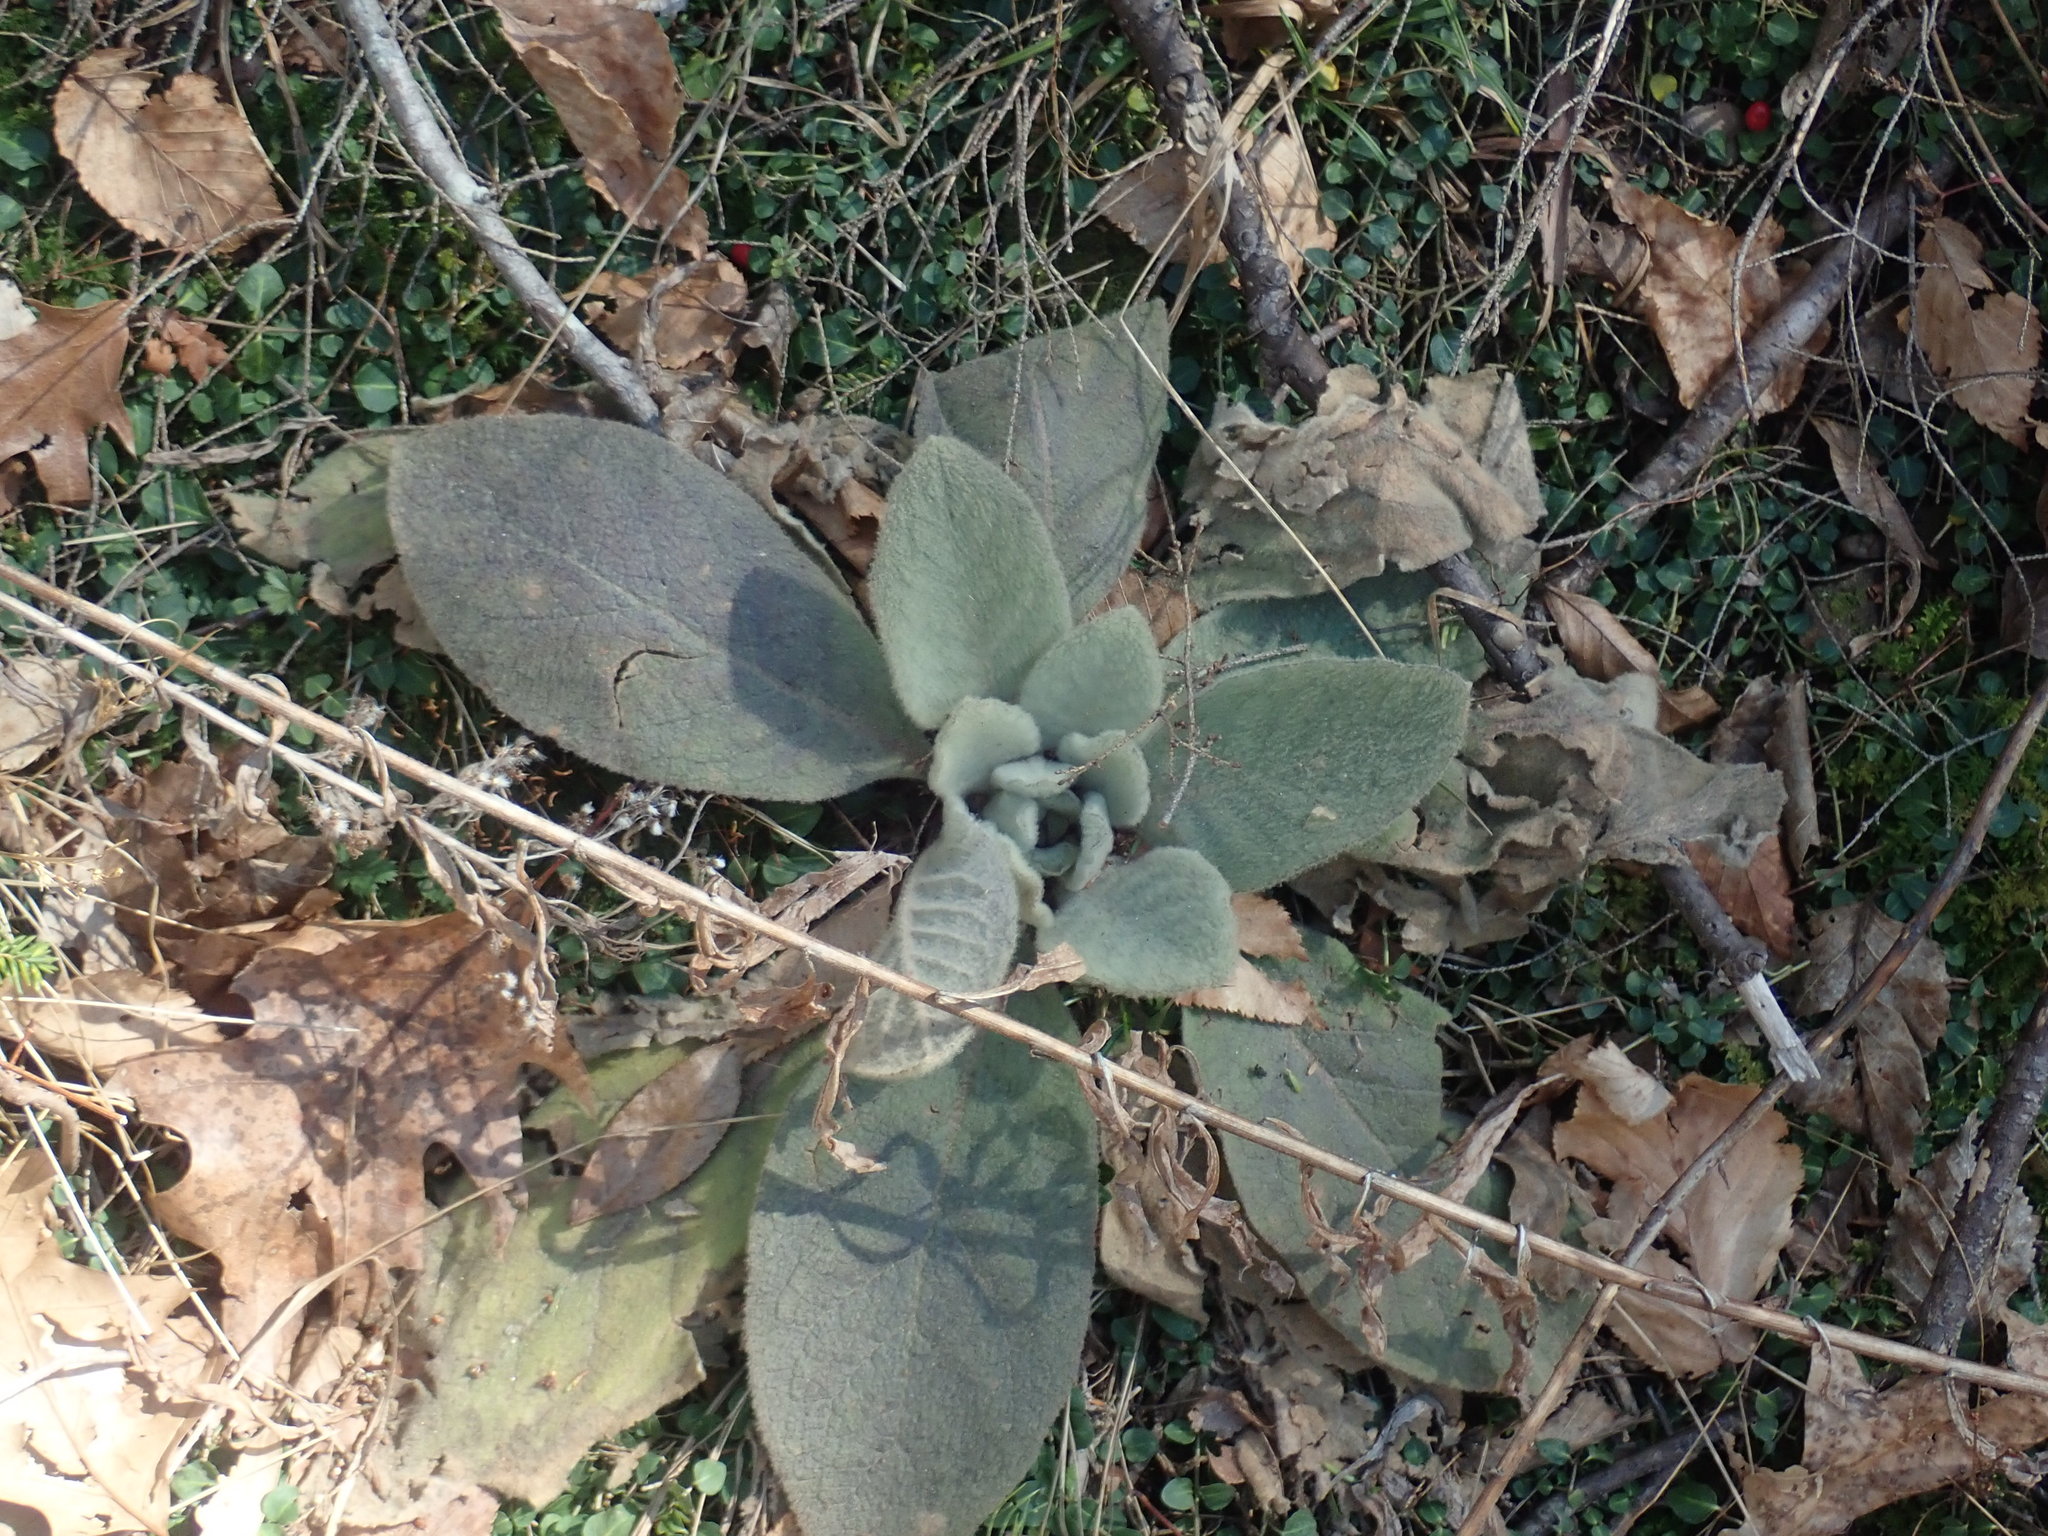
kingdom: Plantae
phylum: Tracheophyta
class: Magnoliopsida
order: Lamiales
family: Scrophulariaceae
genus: Verbascum
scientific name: Verbascum thapsus
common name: Common mullein
